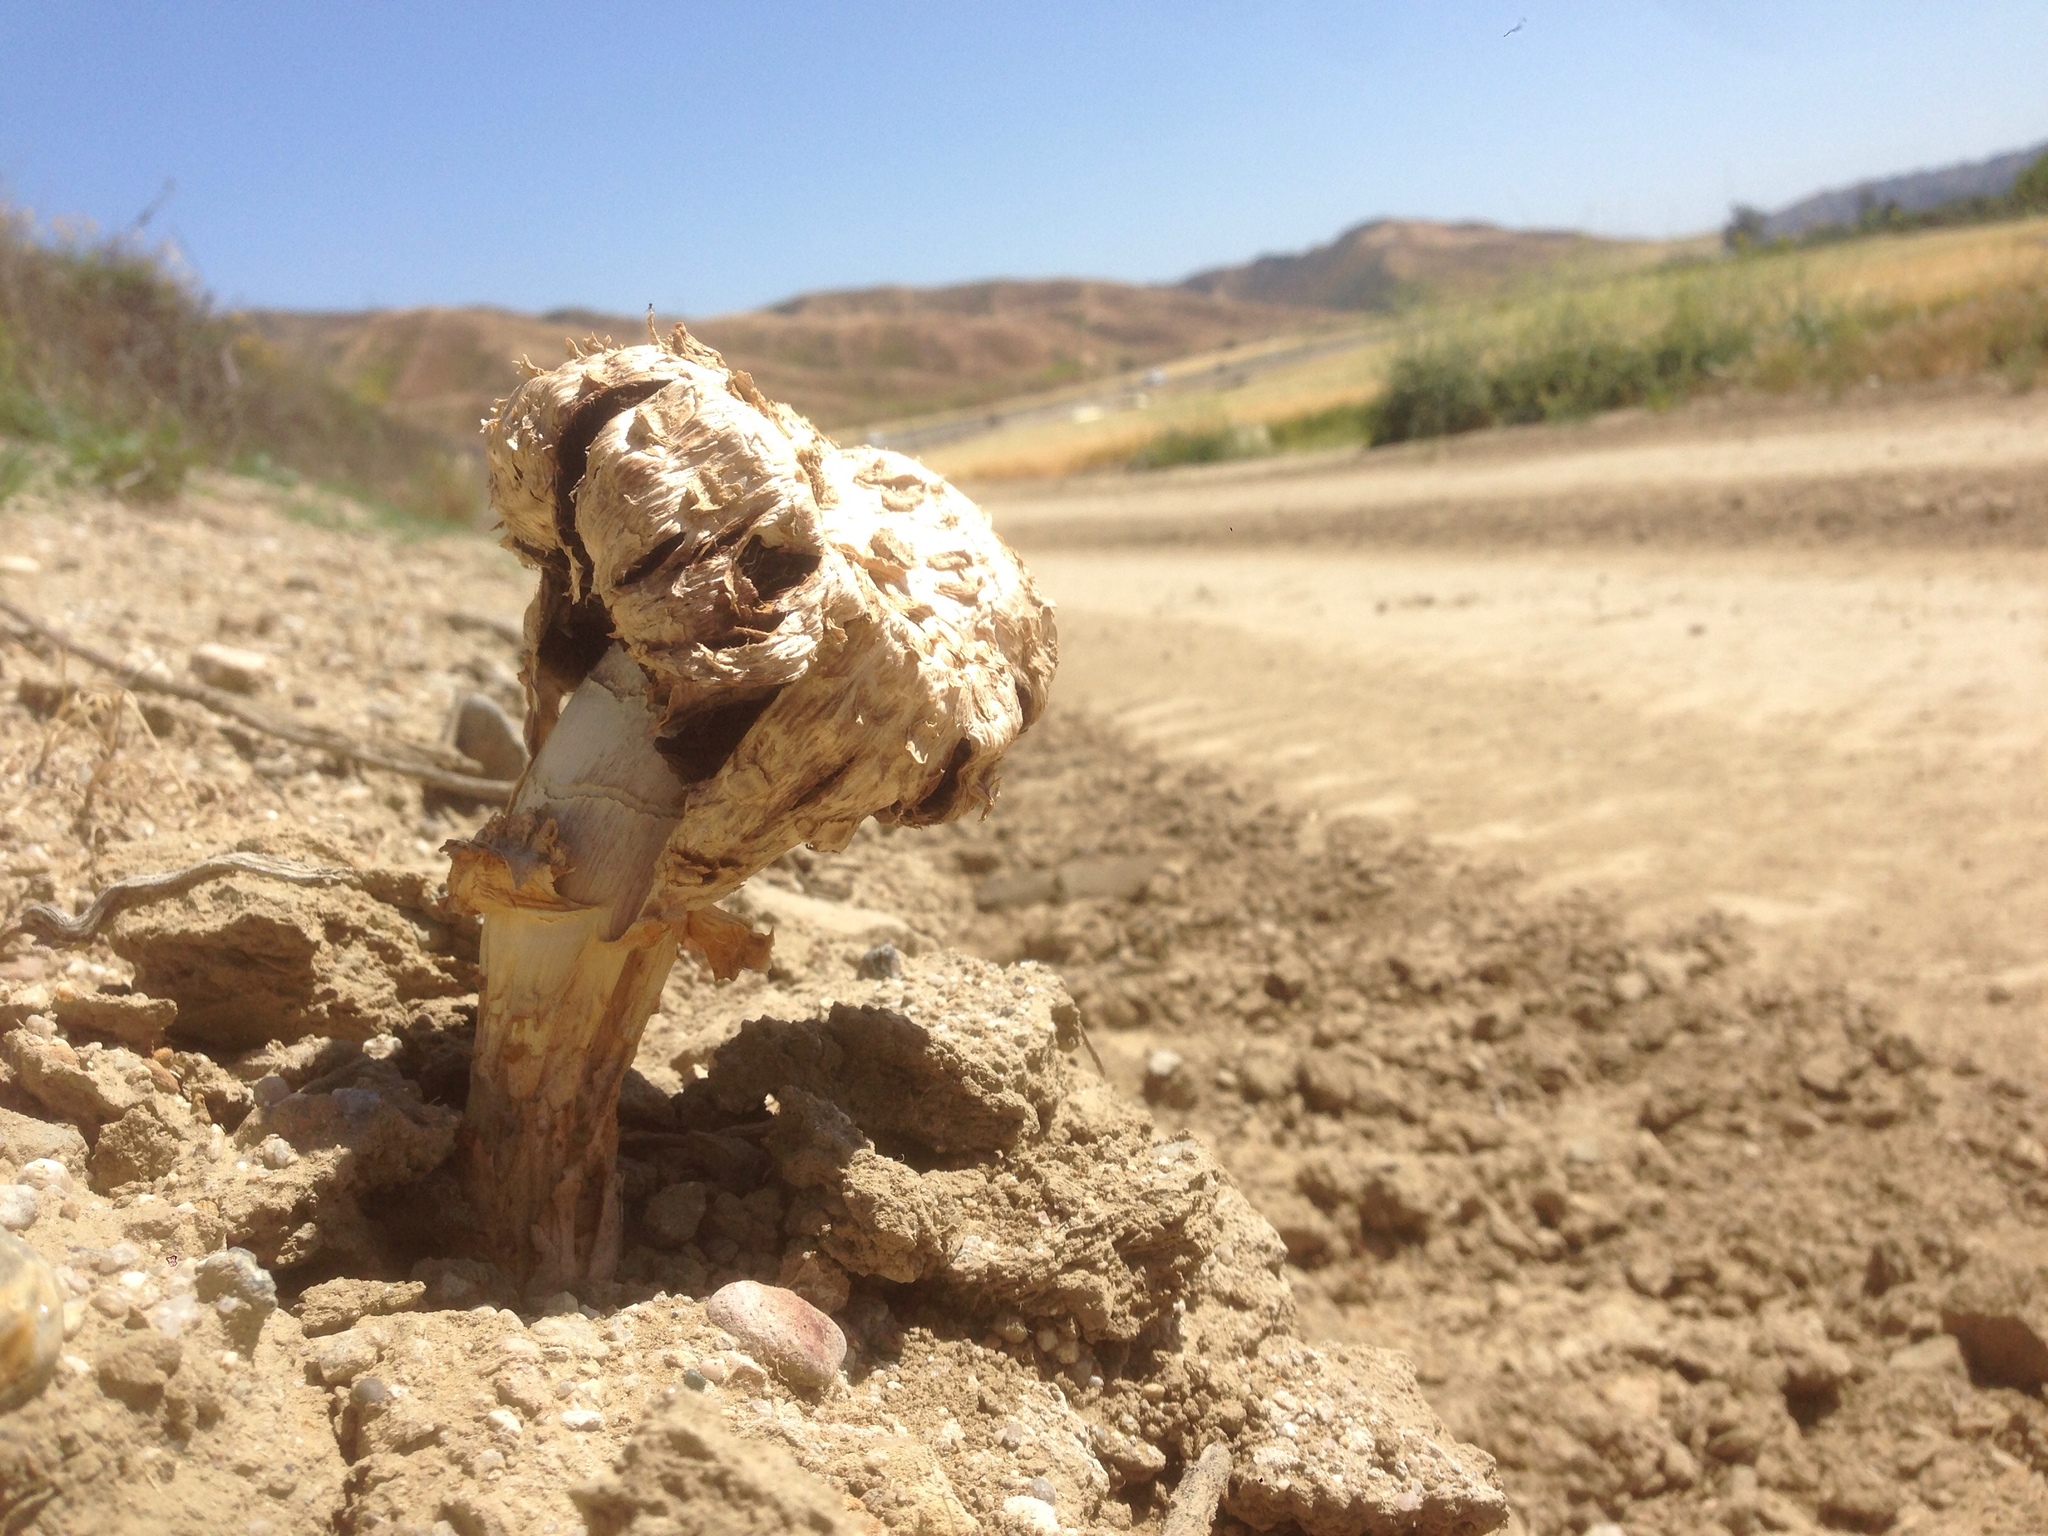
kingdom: Fungi
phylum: Basidiomycota
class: Agaricomycetes
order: Agaricales
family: Agaricaceae
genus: Agaricus
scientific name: Agaricus deserticola
